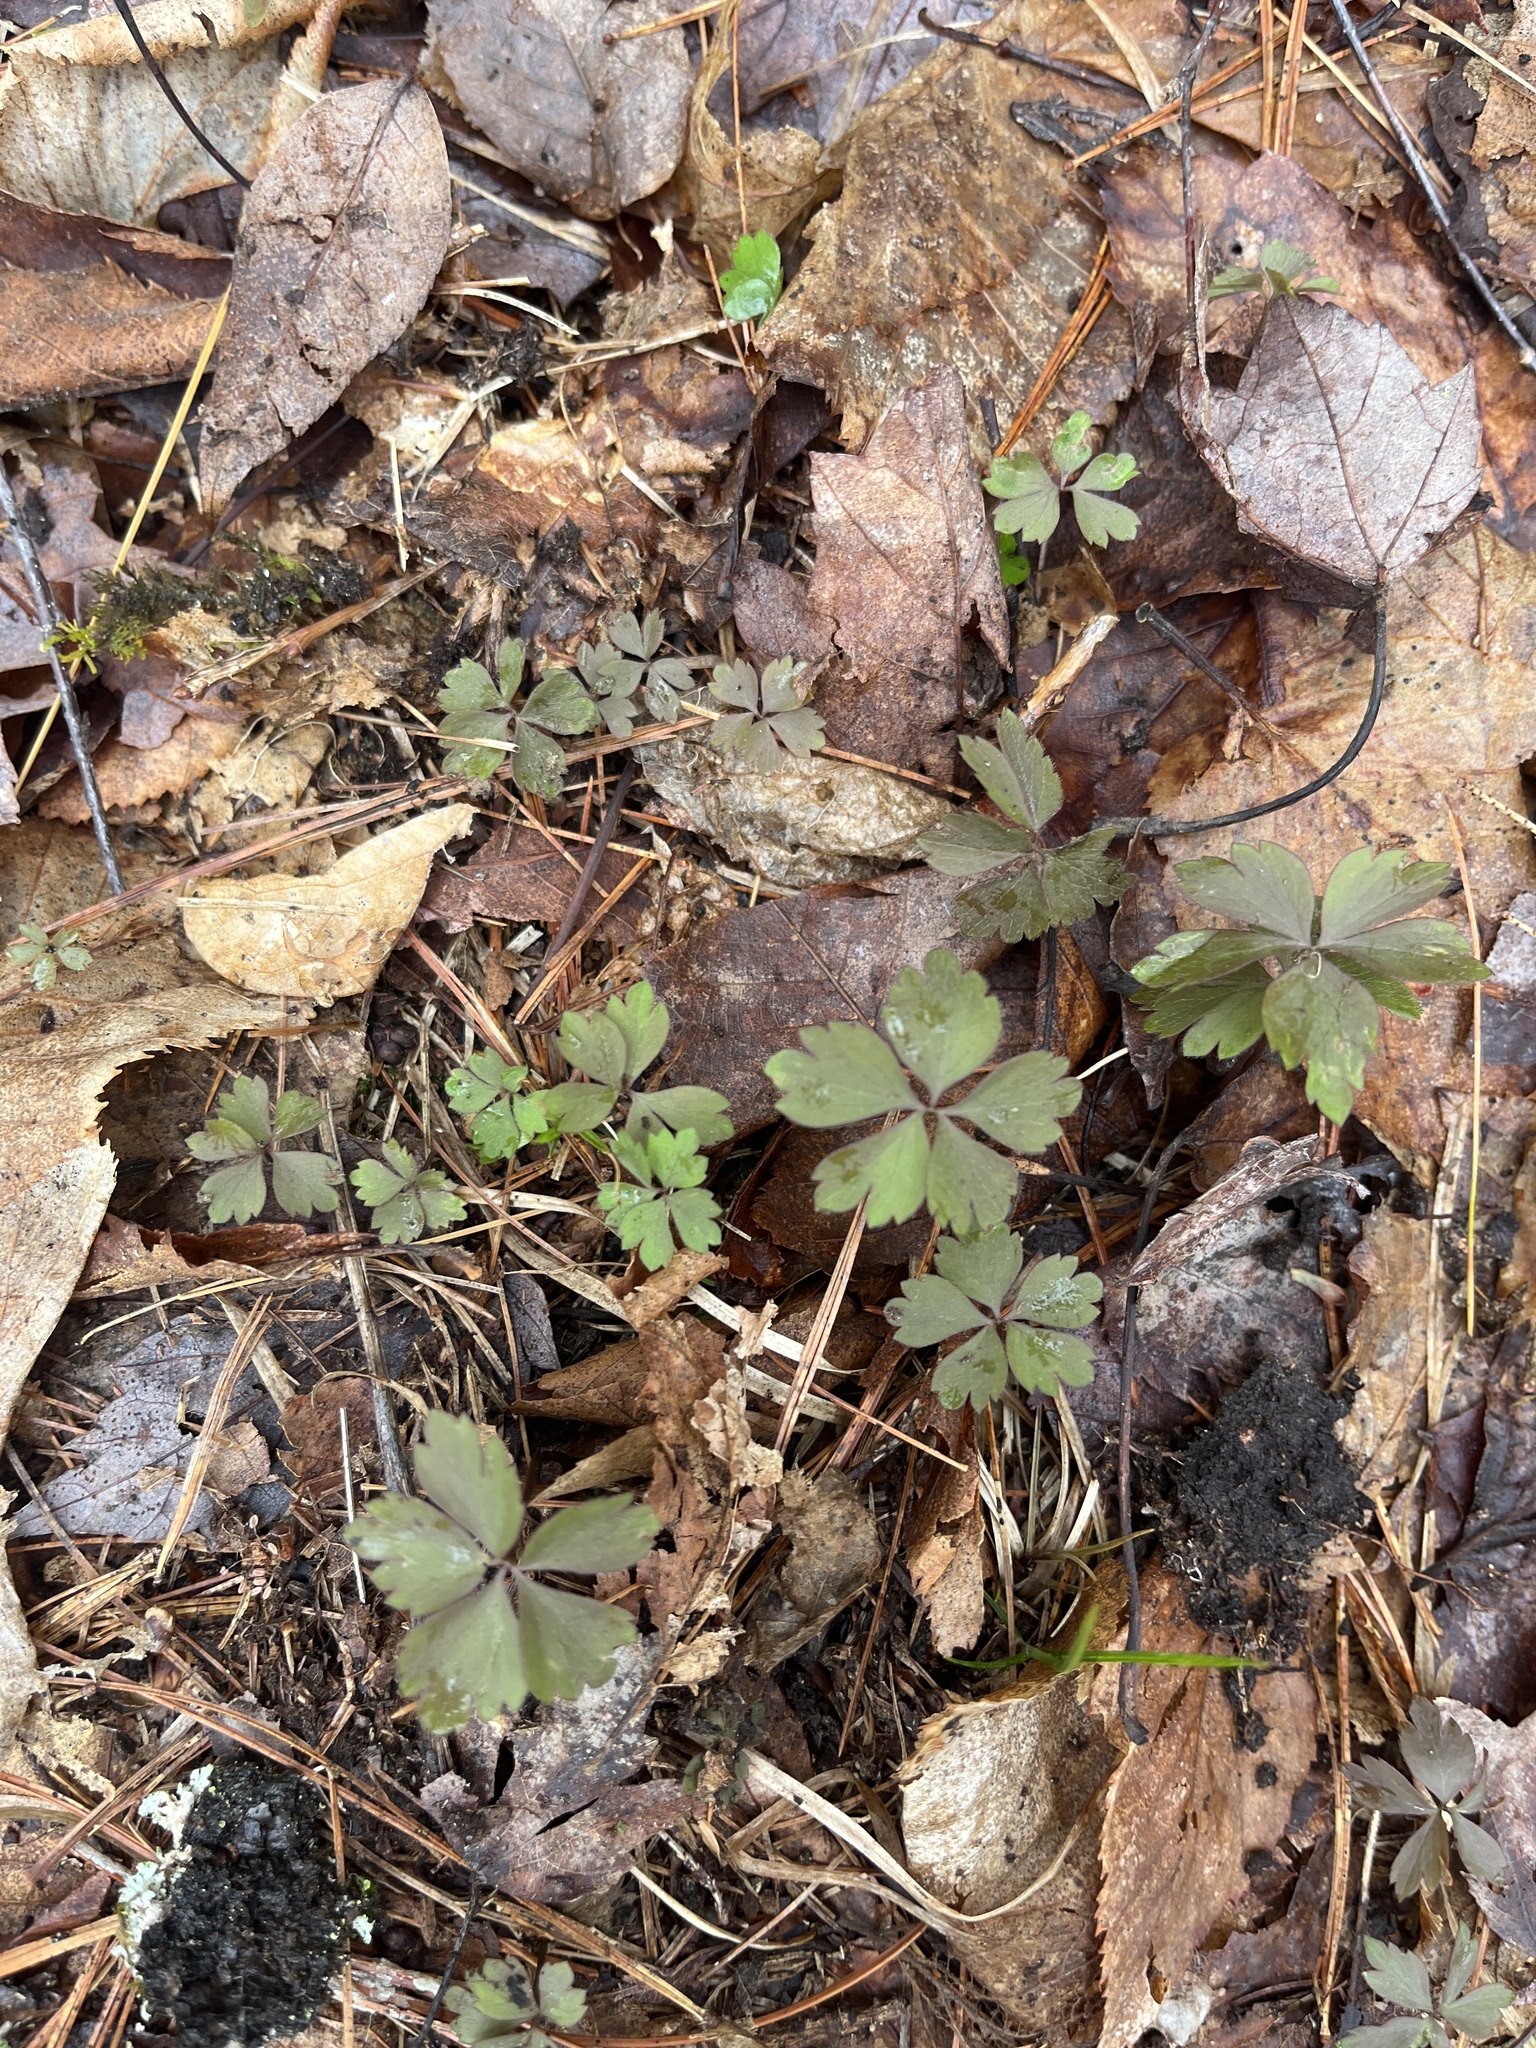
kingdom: Plantae
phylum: Tracheophyta
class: Magnoliopsida
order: Ranunculales
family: Ranunculaceae
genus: Anemone
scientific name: Anemone quinquefolia
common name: Wood anemone
